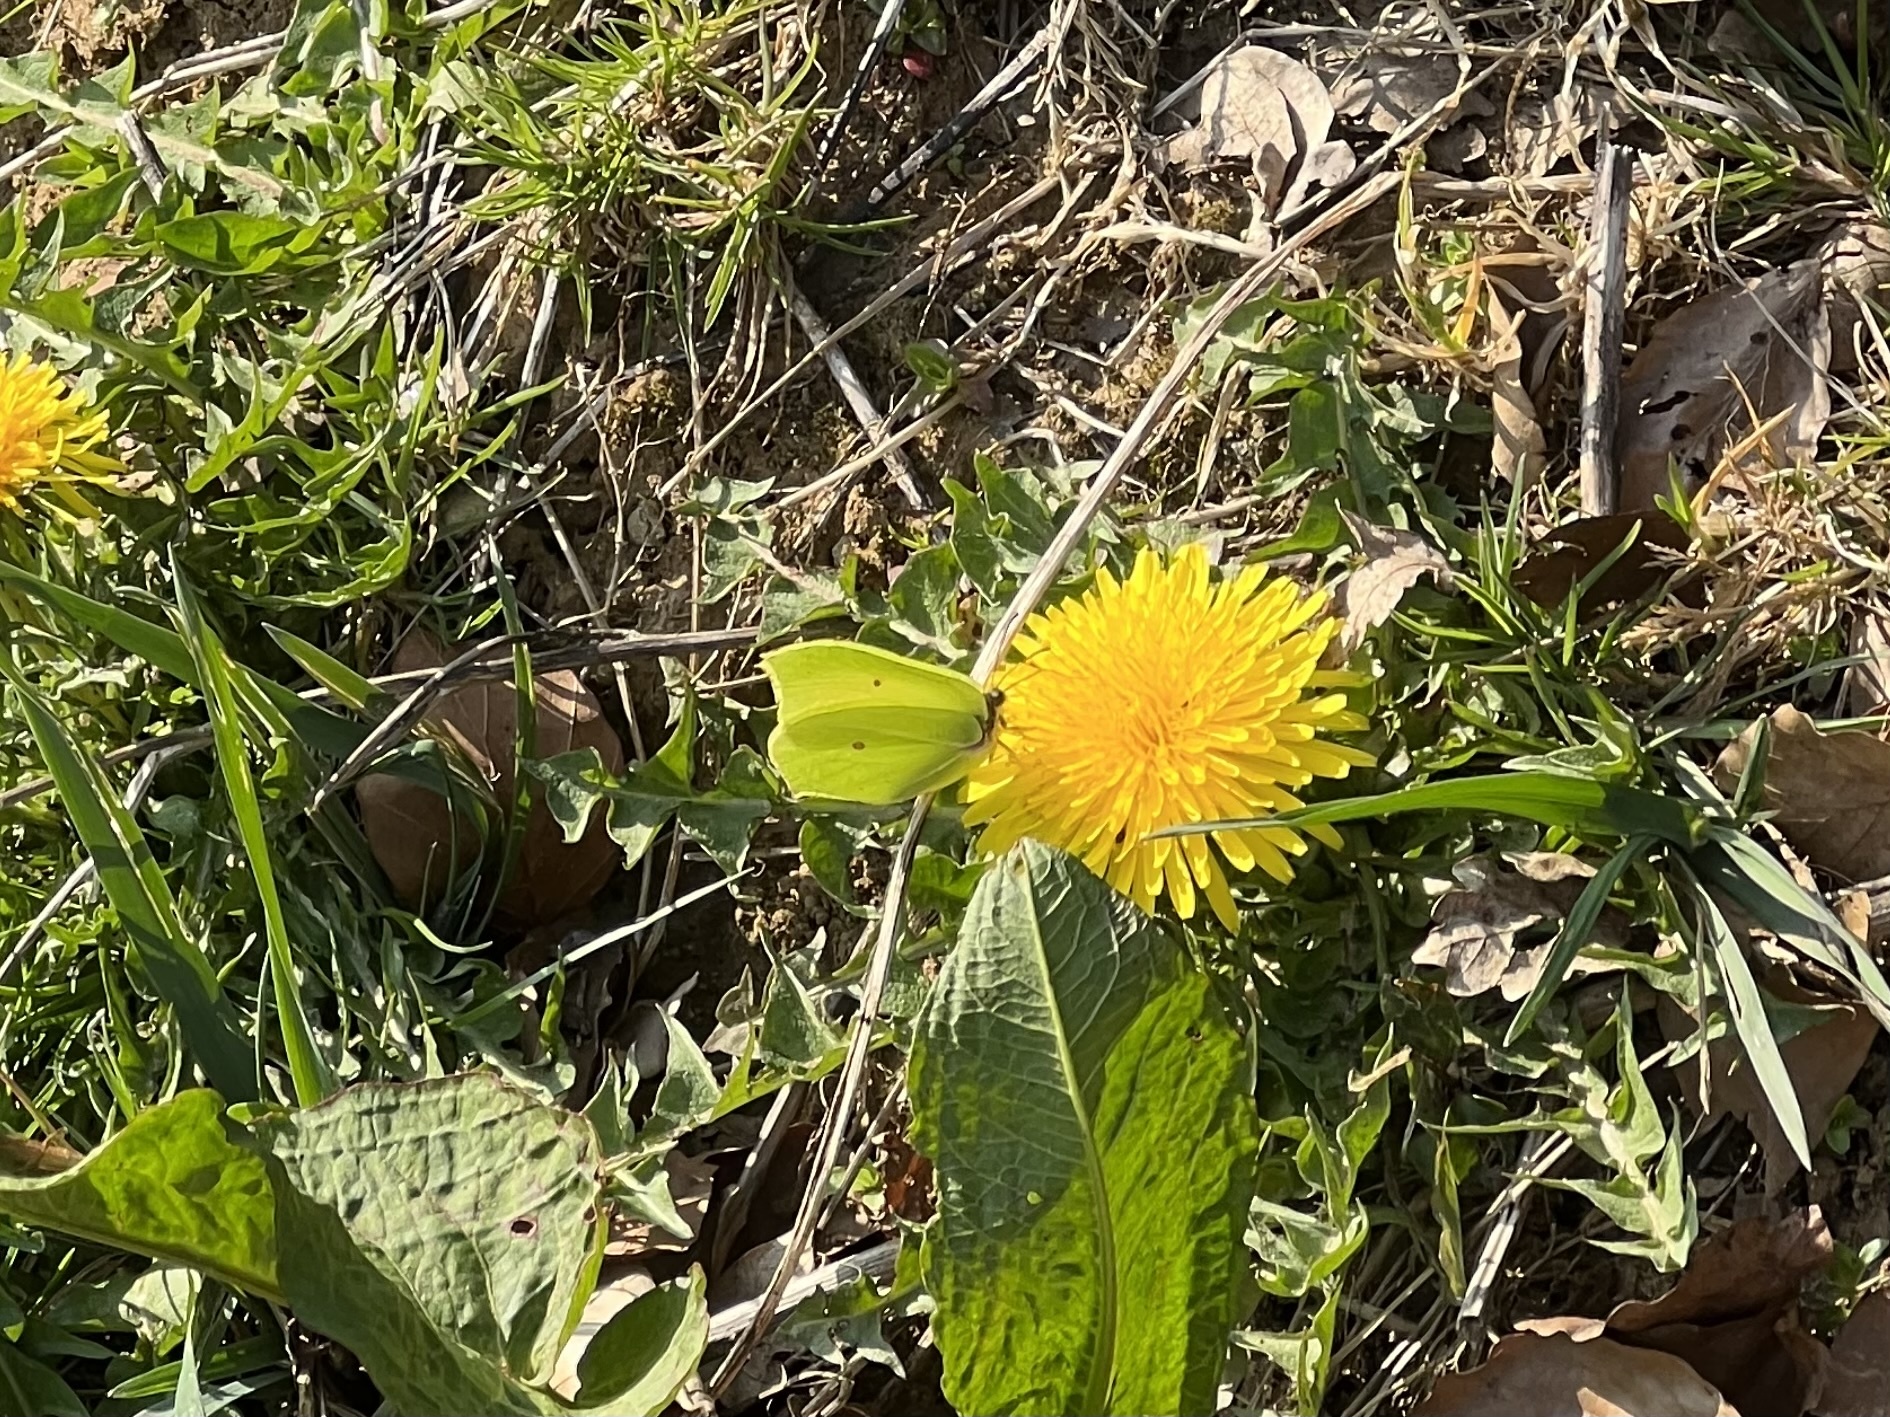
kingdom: Animalia
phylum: Arthropoda
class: Insecta
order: Lepidoptera
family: Pieridae
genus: Gonepteryx
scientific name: Gonepteryx rhamni
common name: Brimstone
